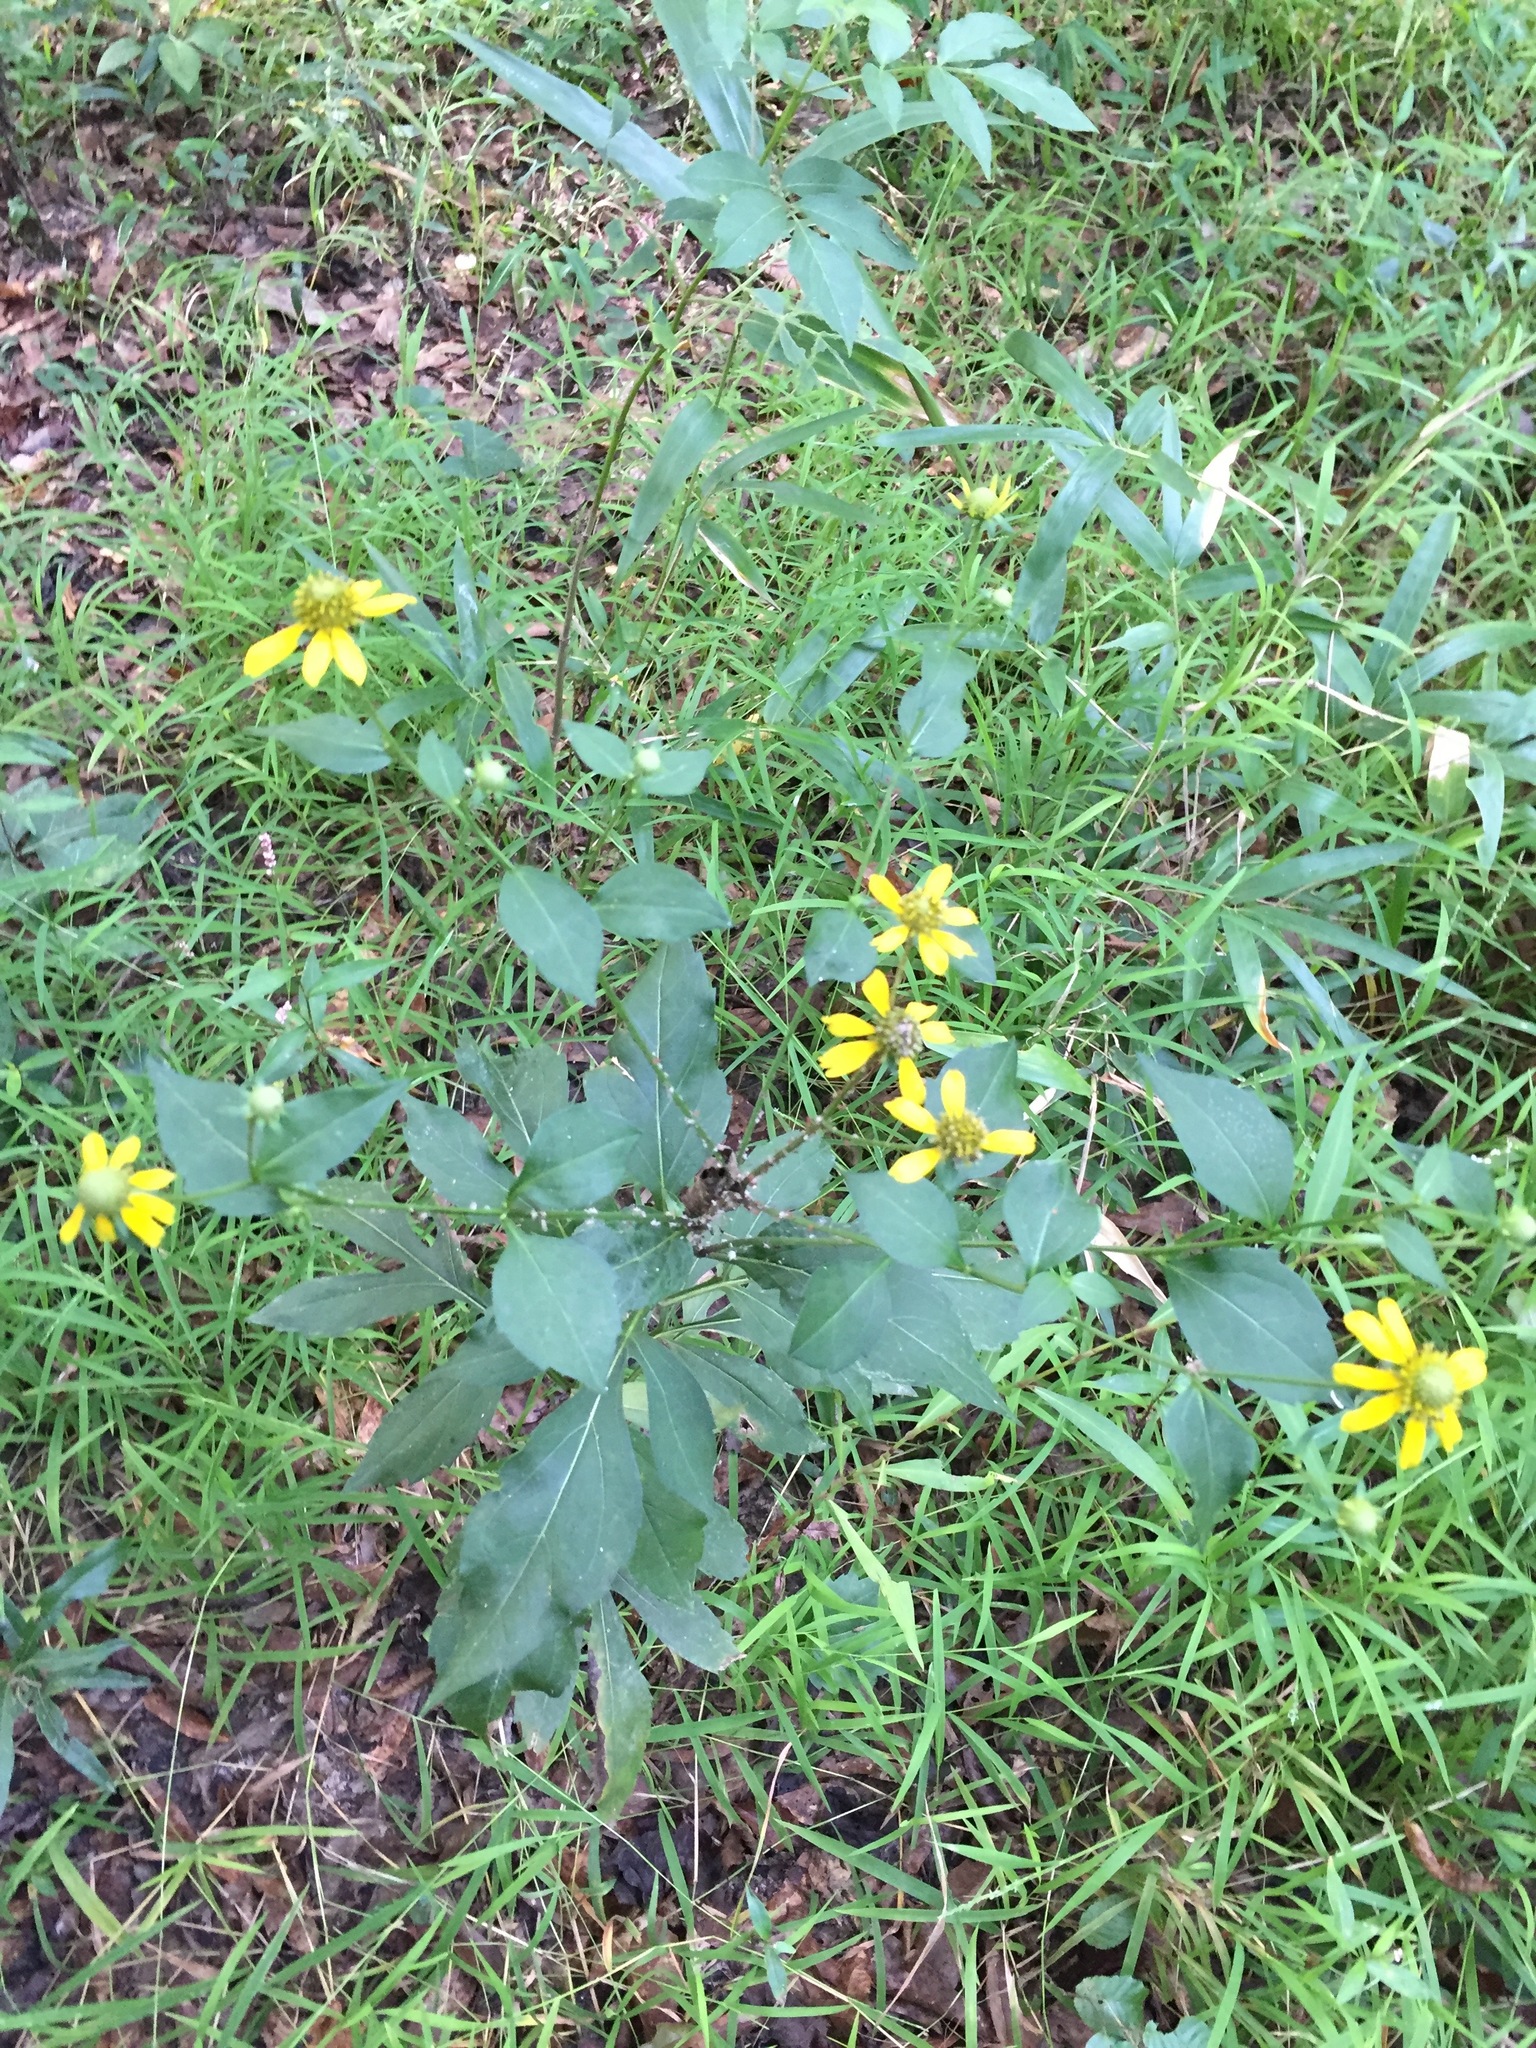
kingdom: Plantae
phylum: Tracheophyta
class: Magnoliopsida
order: Asterales
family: Asteraceae
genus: Rudbeckia
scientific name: Rudbeckia laciniata
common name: Coneflower
